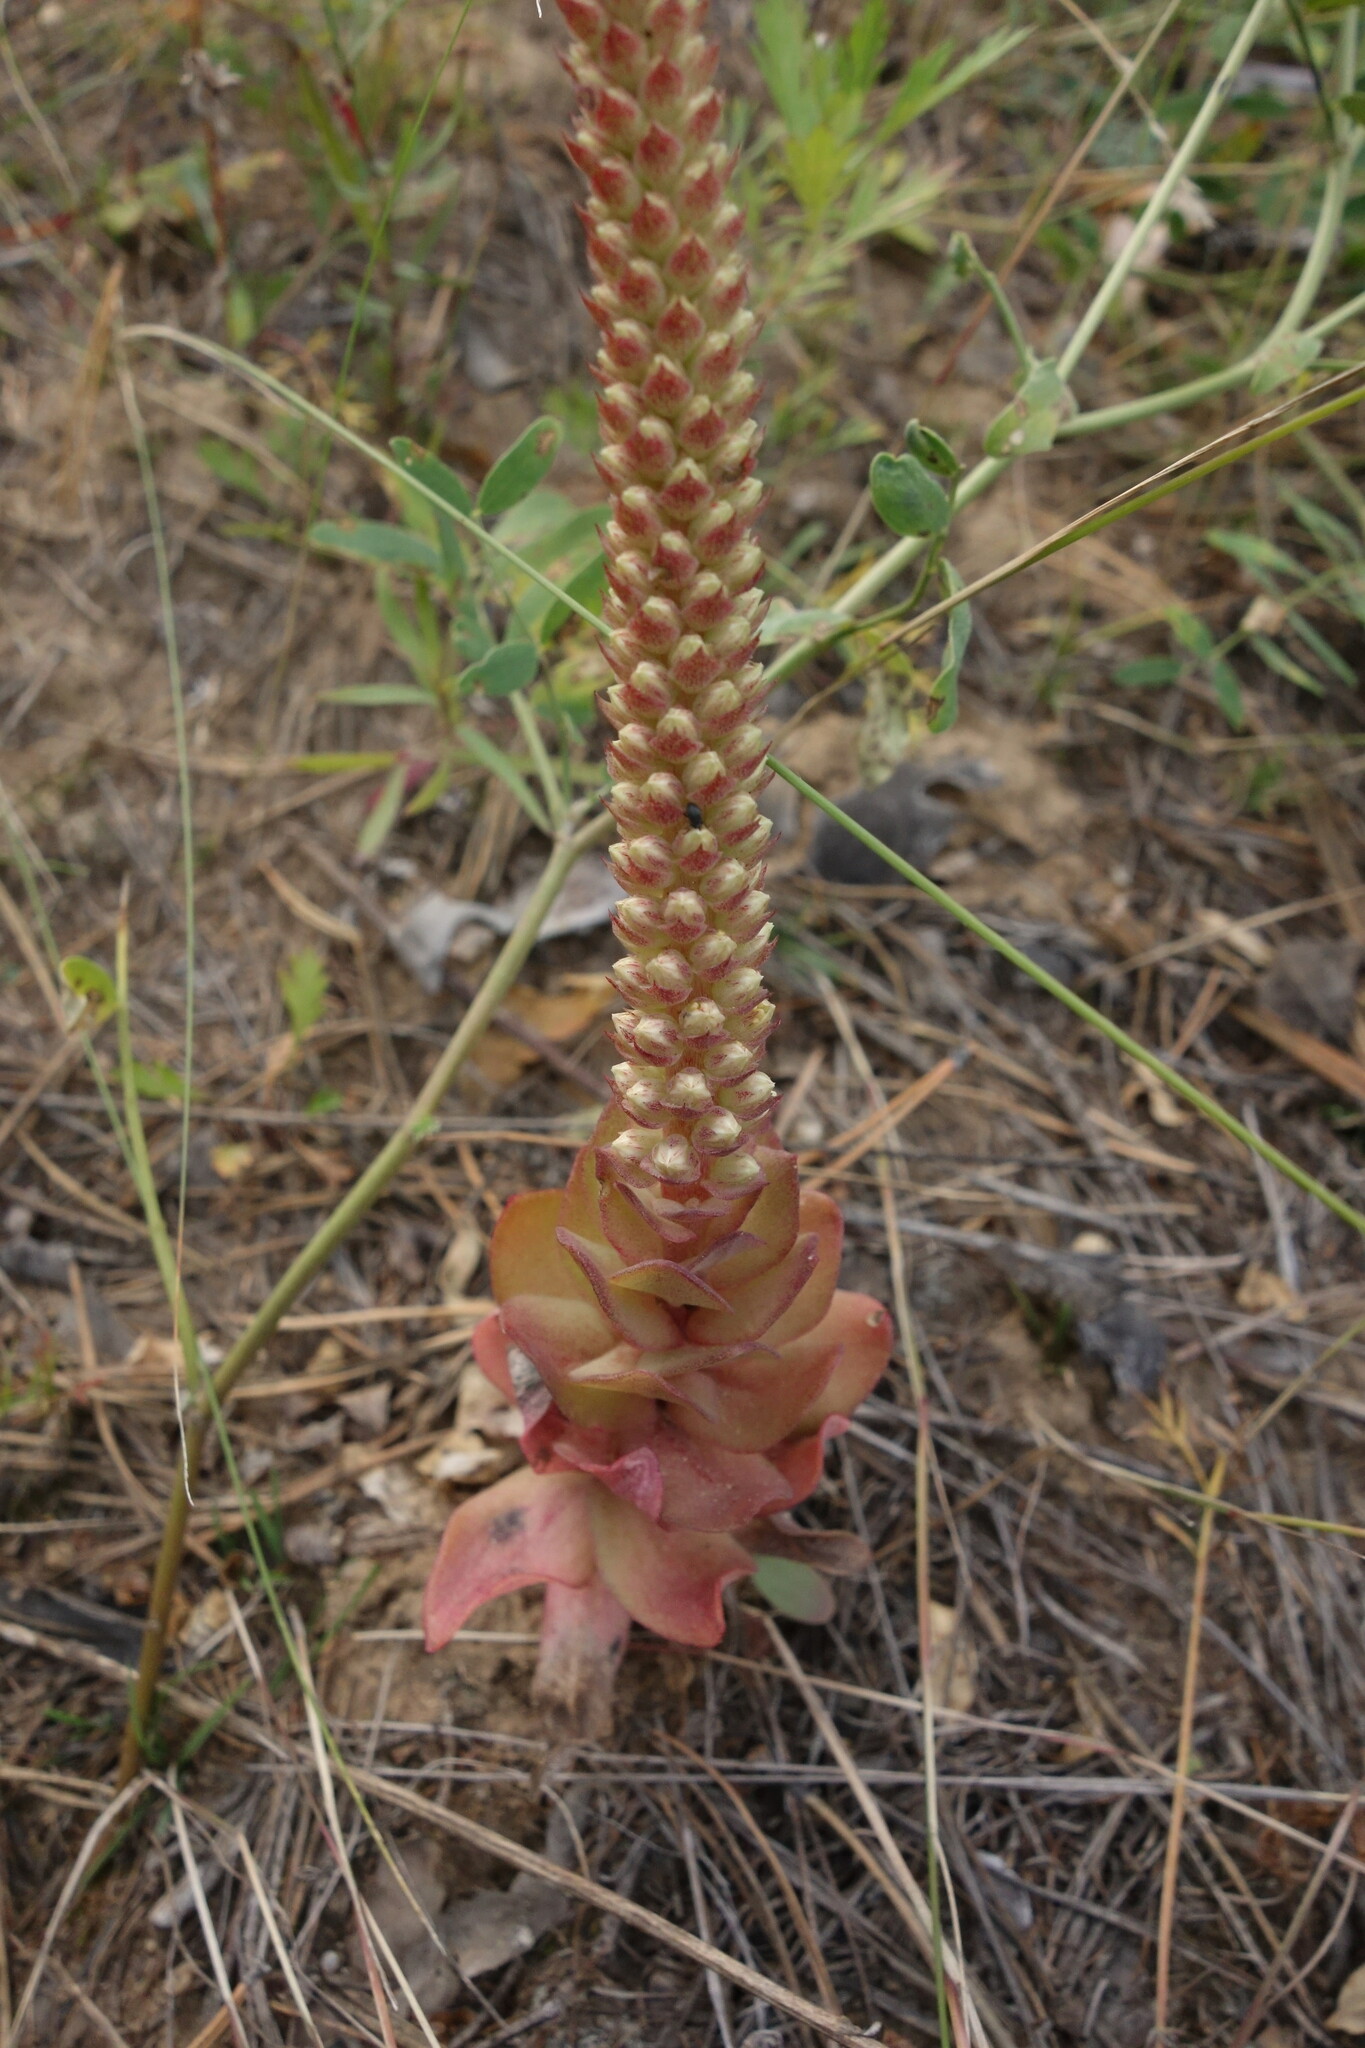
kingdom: Plantae
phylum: Tracheophyta
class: Magnoliopsida
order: Saxifragales
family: Crassulaceae
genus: Orostachys
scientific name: Orostachys malacophylla
